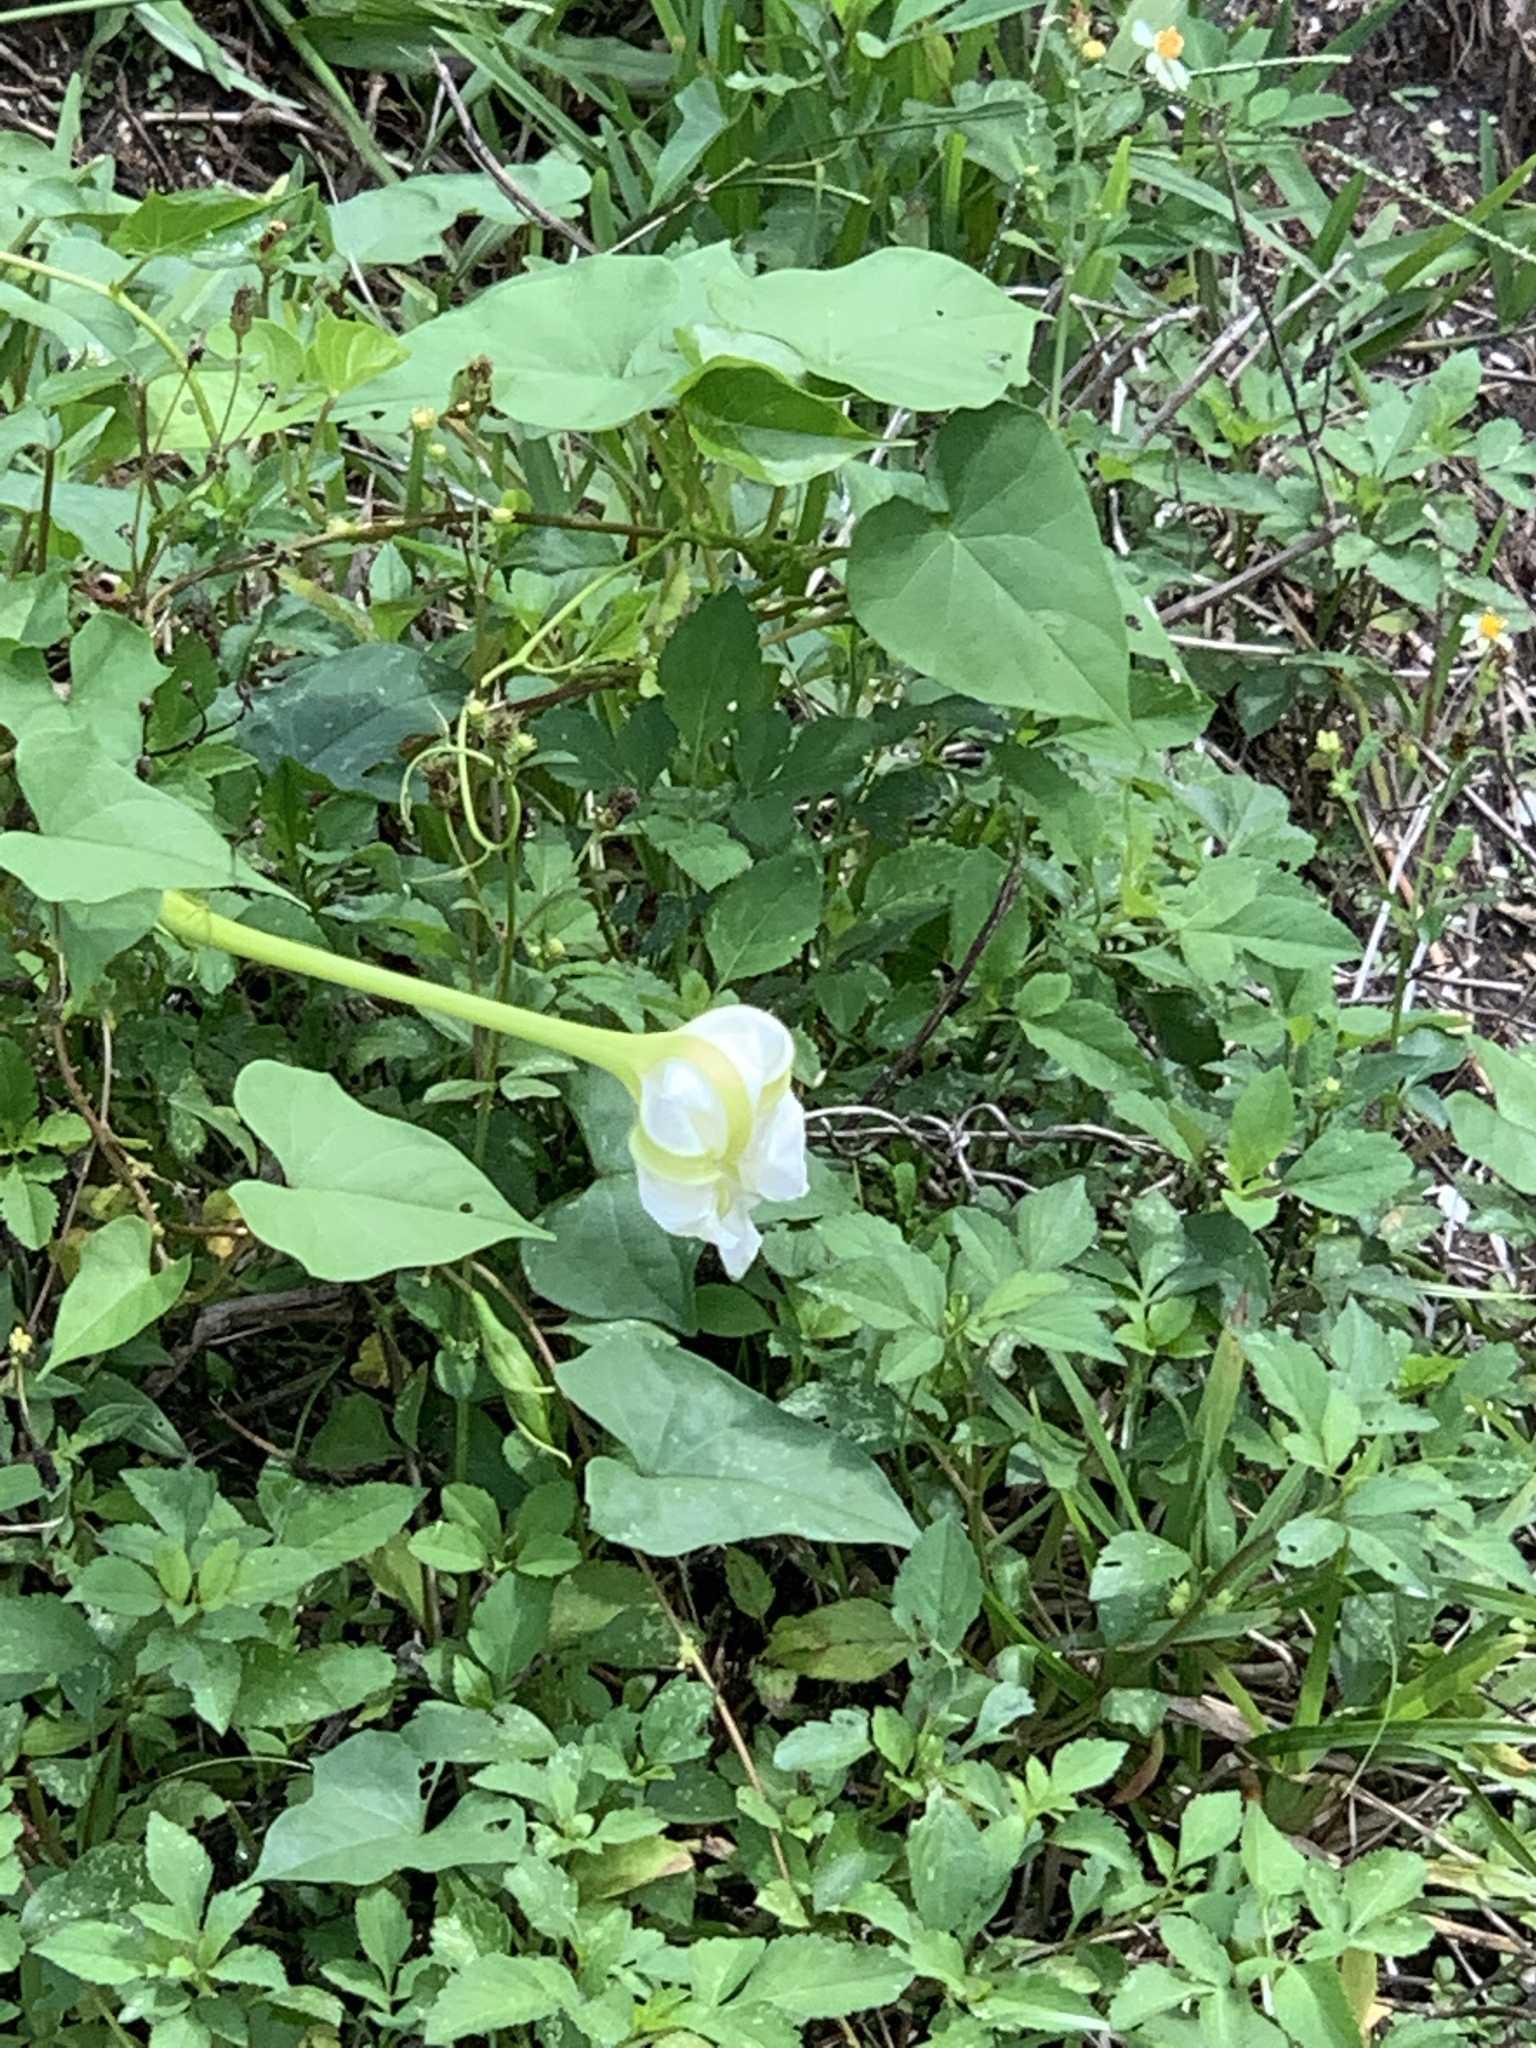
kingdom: Plantae
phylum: Tracheophyta
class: Magnoliopsida
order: Solanales
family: Convolvulaceae
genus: Ipomoea
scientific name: Ipomoea alba
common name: Moonflower
